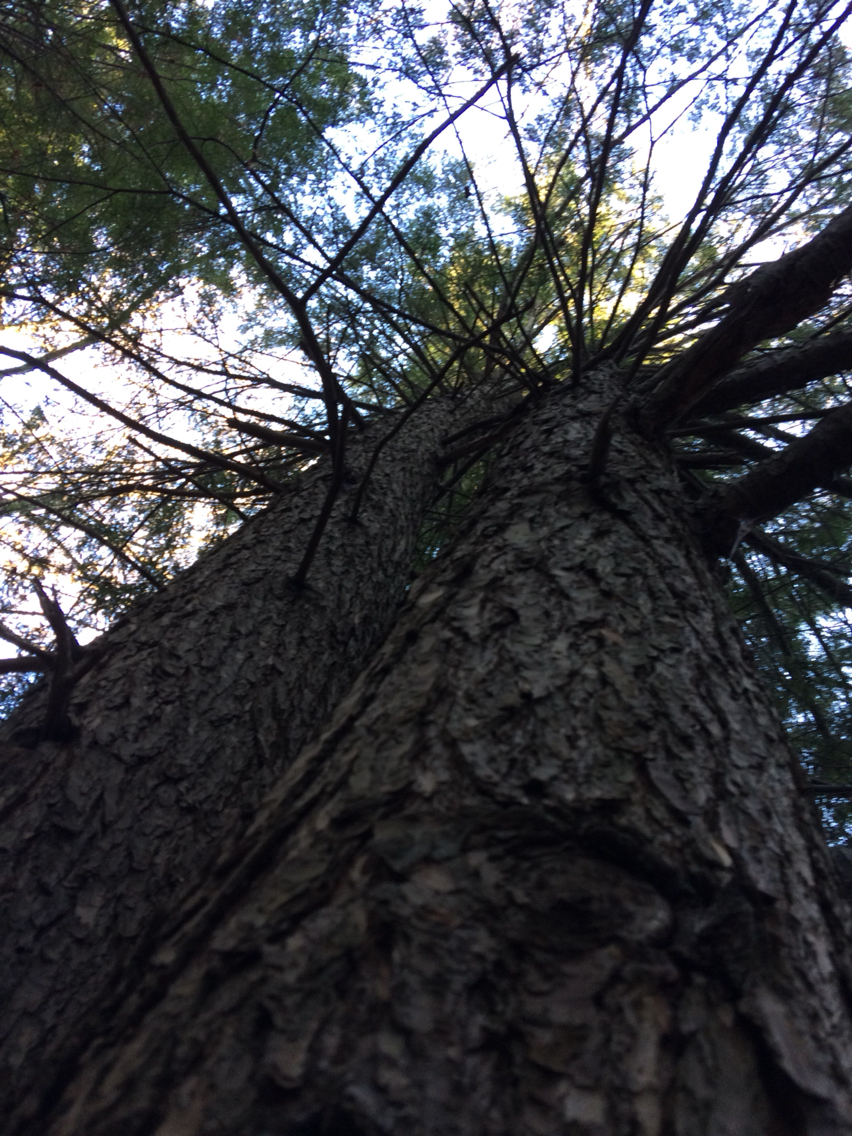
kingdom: Plantae
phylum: Tracheophyta
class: Pinopsida
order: Pinales
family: Pinaceae
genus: Tsuga
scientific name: Tsuga canadensis
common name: Eastern hemlock
